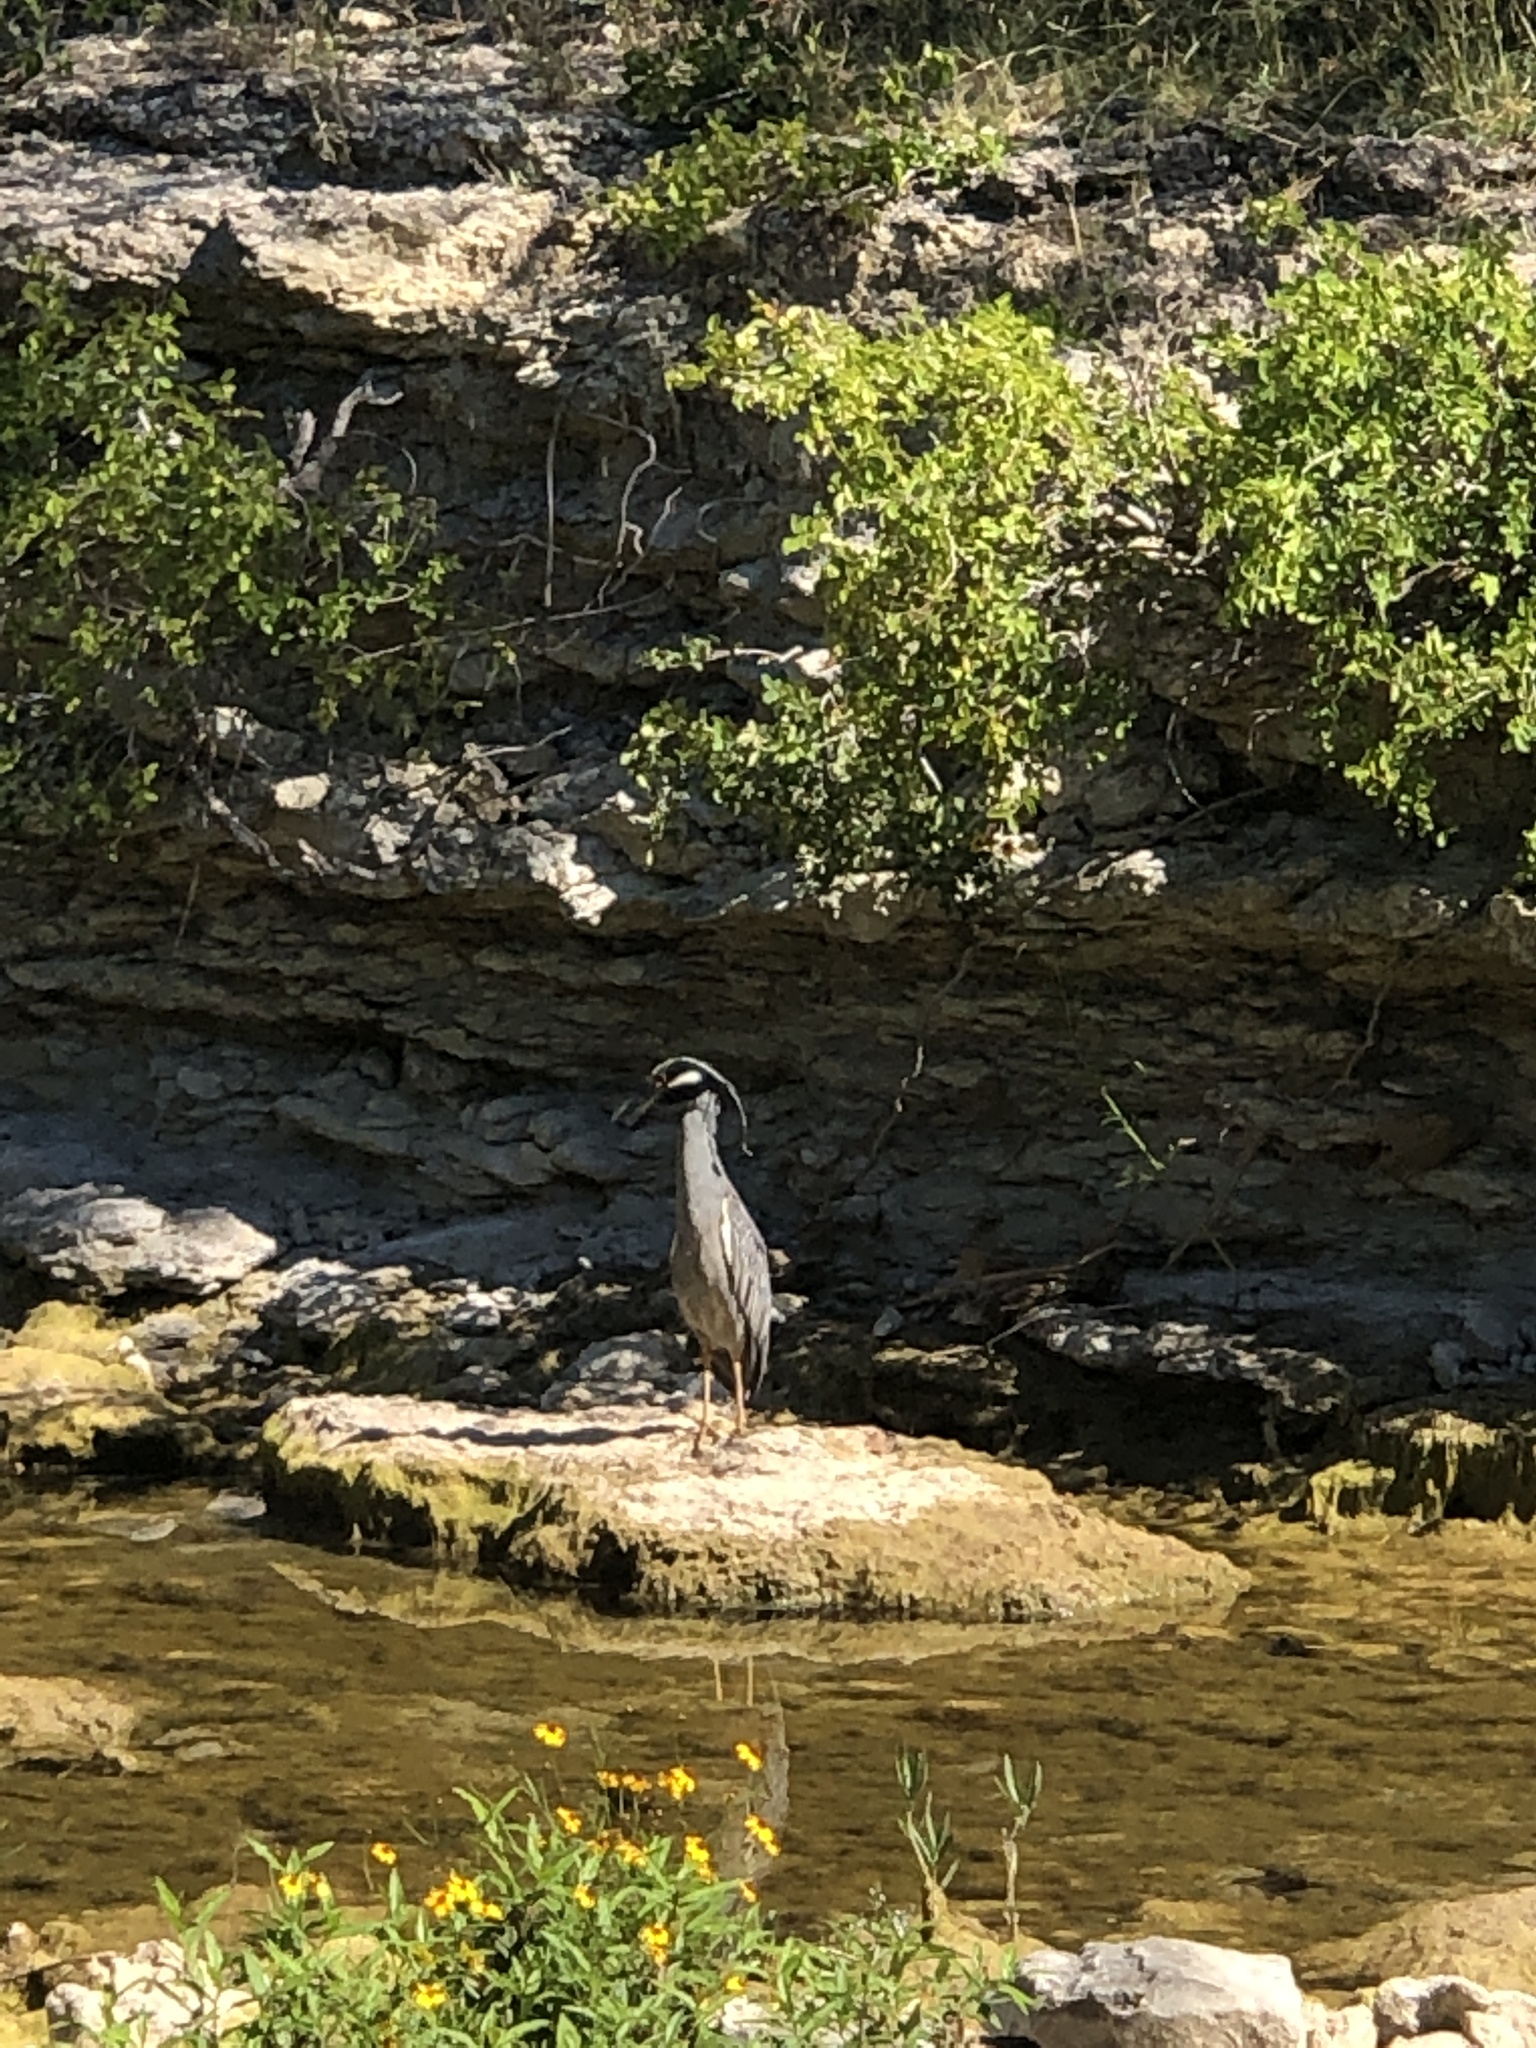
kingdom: Animalia
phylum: Chordata
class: Aves
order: Pelecaniformes
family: Ardeidae
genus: Nyctanassa
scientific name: Nyctanassa violacea
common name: Yellow-crowned night heron
